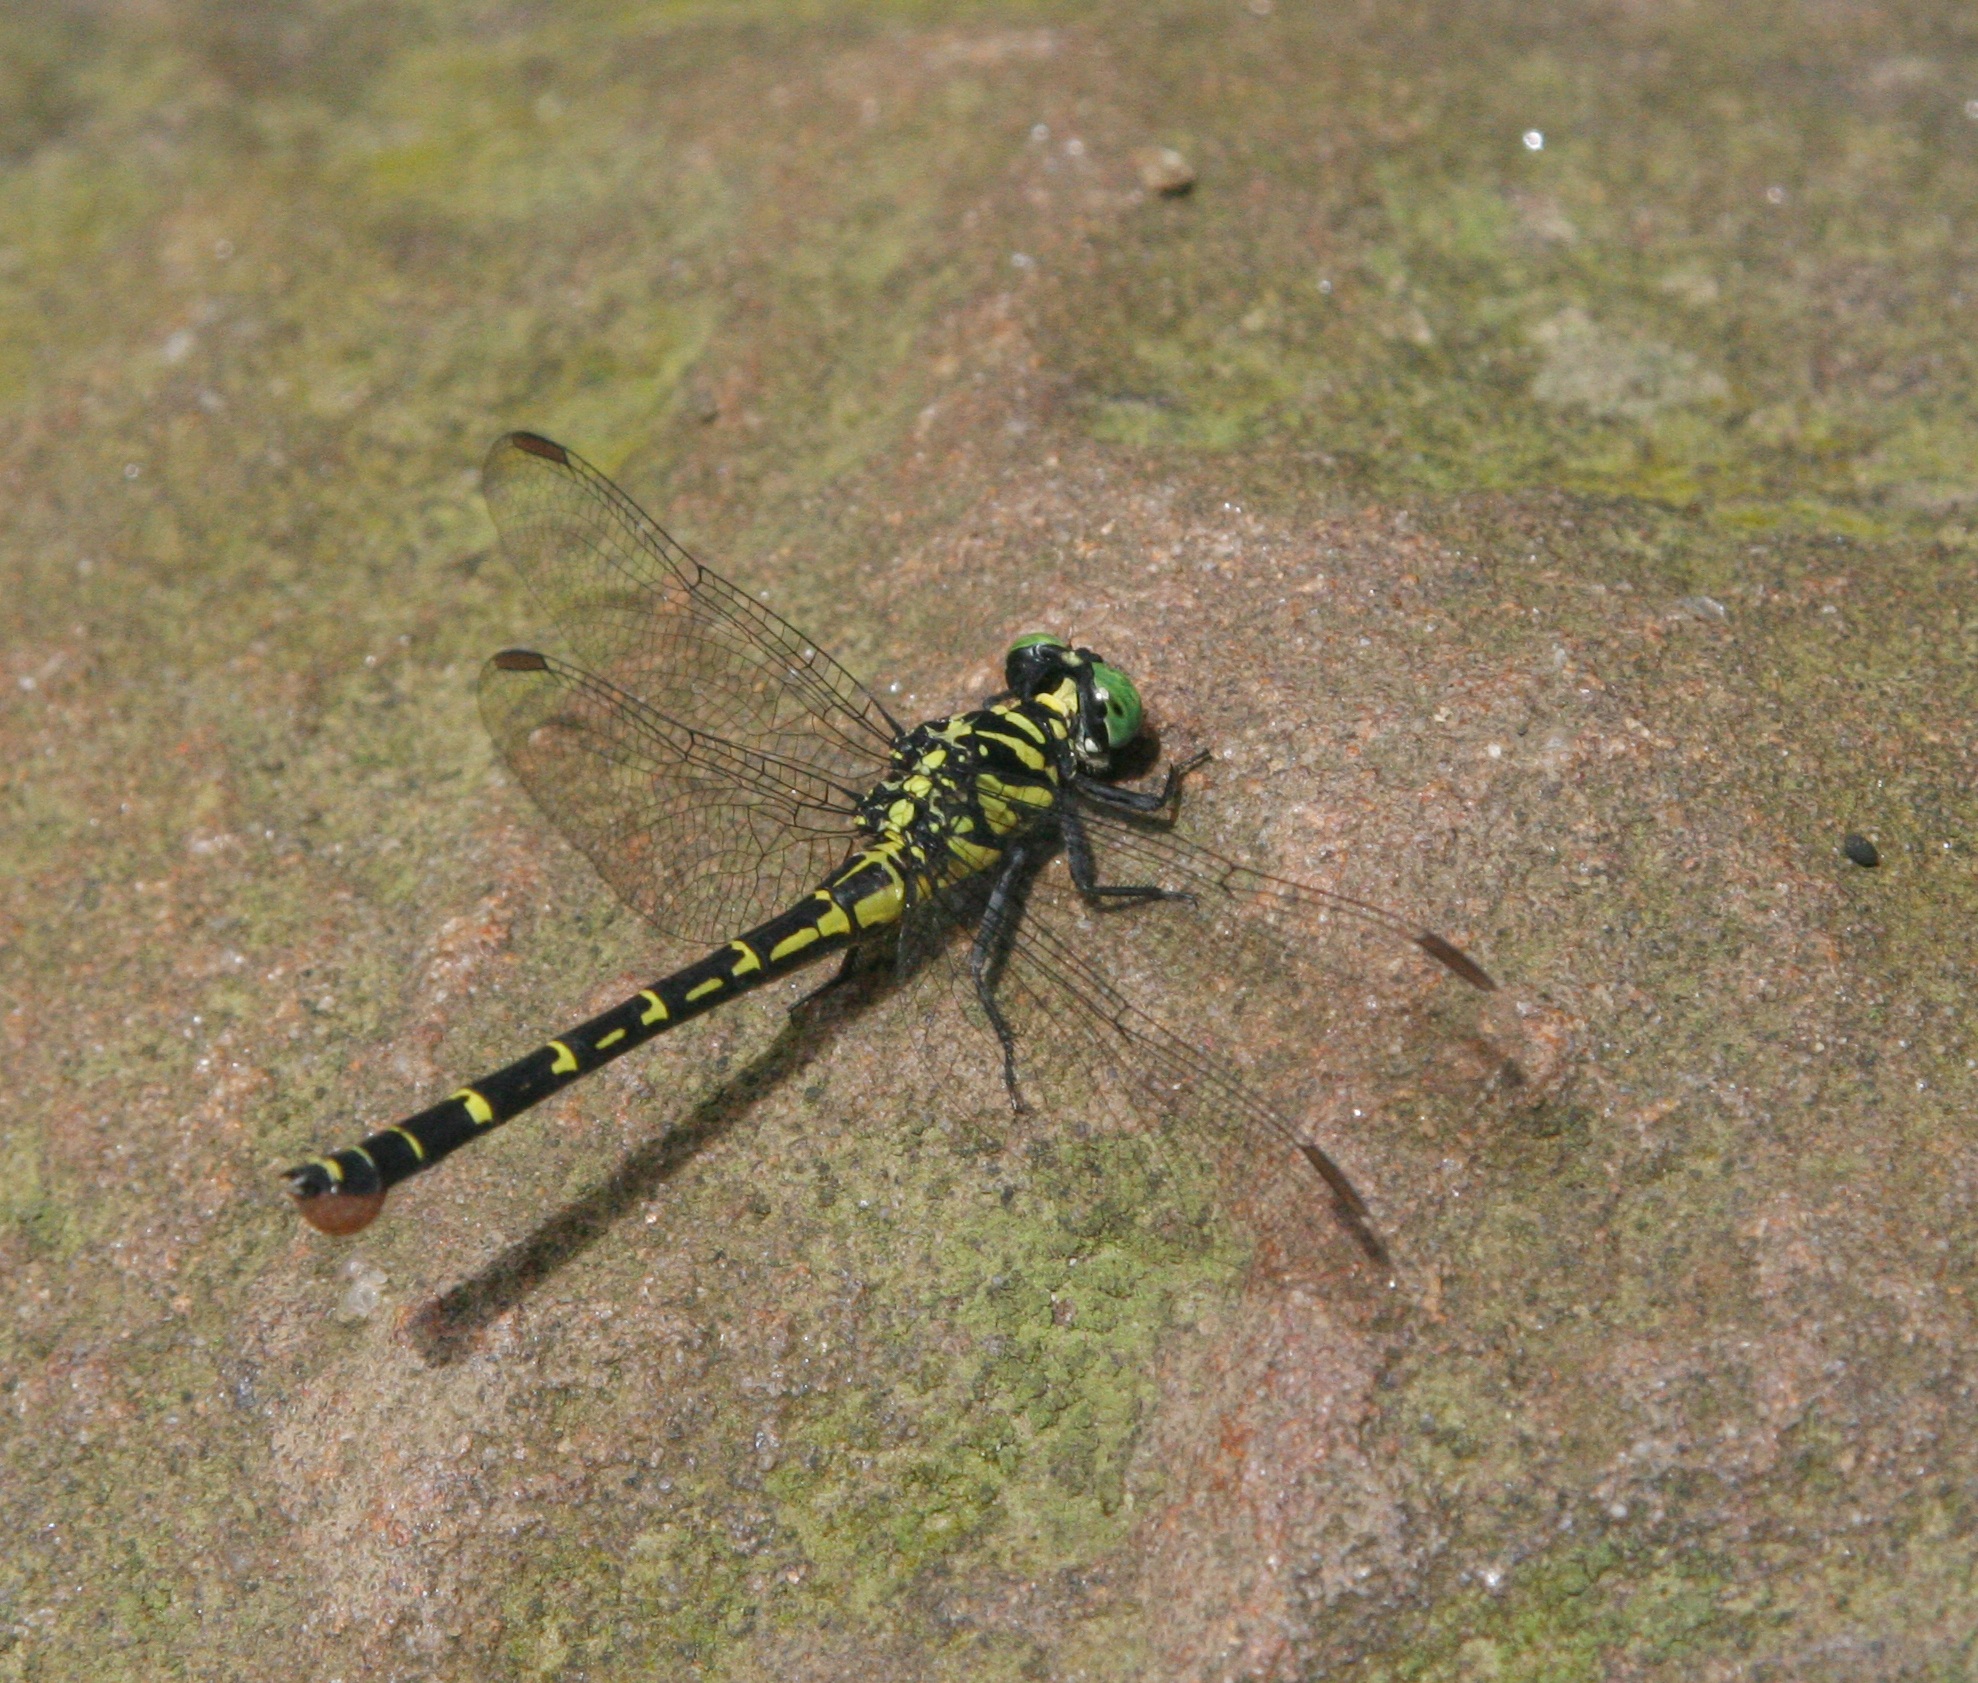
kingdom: Animalia
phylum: Arthropoda
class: Insecta
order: Odonata
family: Gomphidae
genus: Burmagomphus
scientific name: Burmagomphus williamsoni
